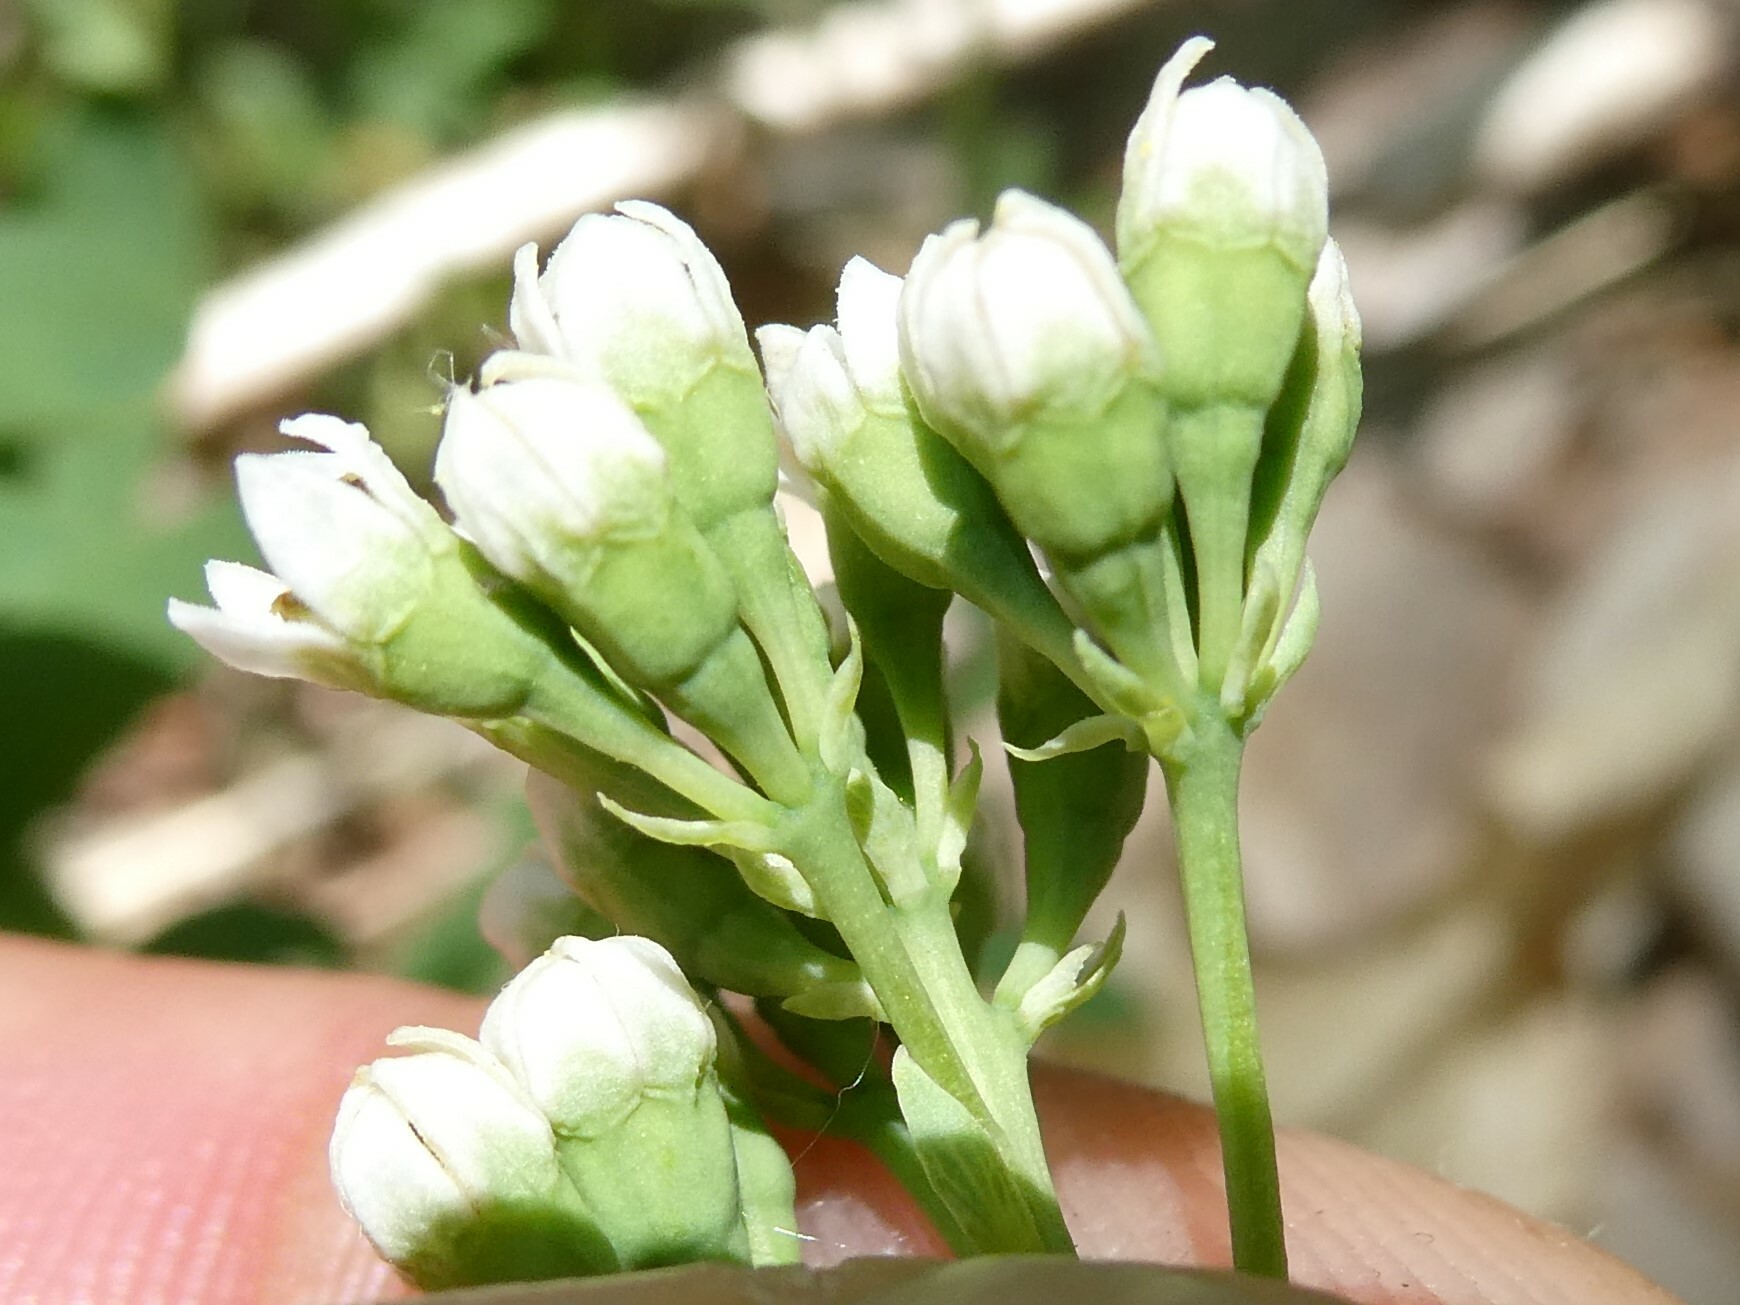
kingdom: Plantae
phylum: Tracheophyta
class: Magnoliopsida
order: Santalales
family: Comandraceae
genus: Comandra
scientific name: Comandra umbellata
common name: Bastard toadflax
